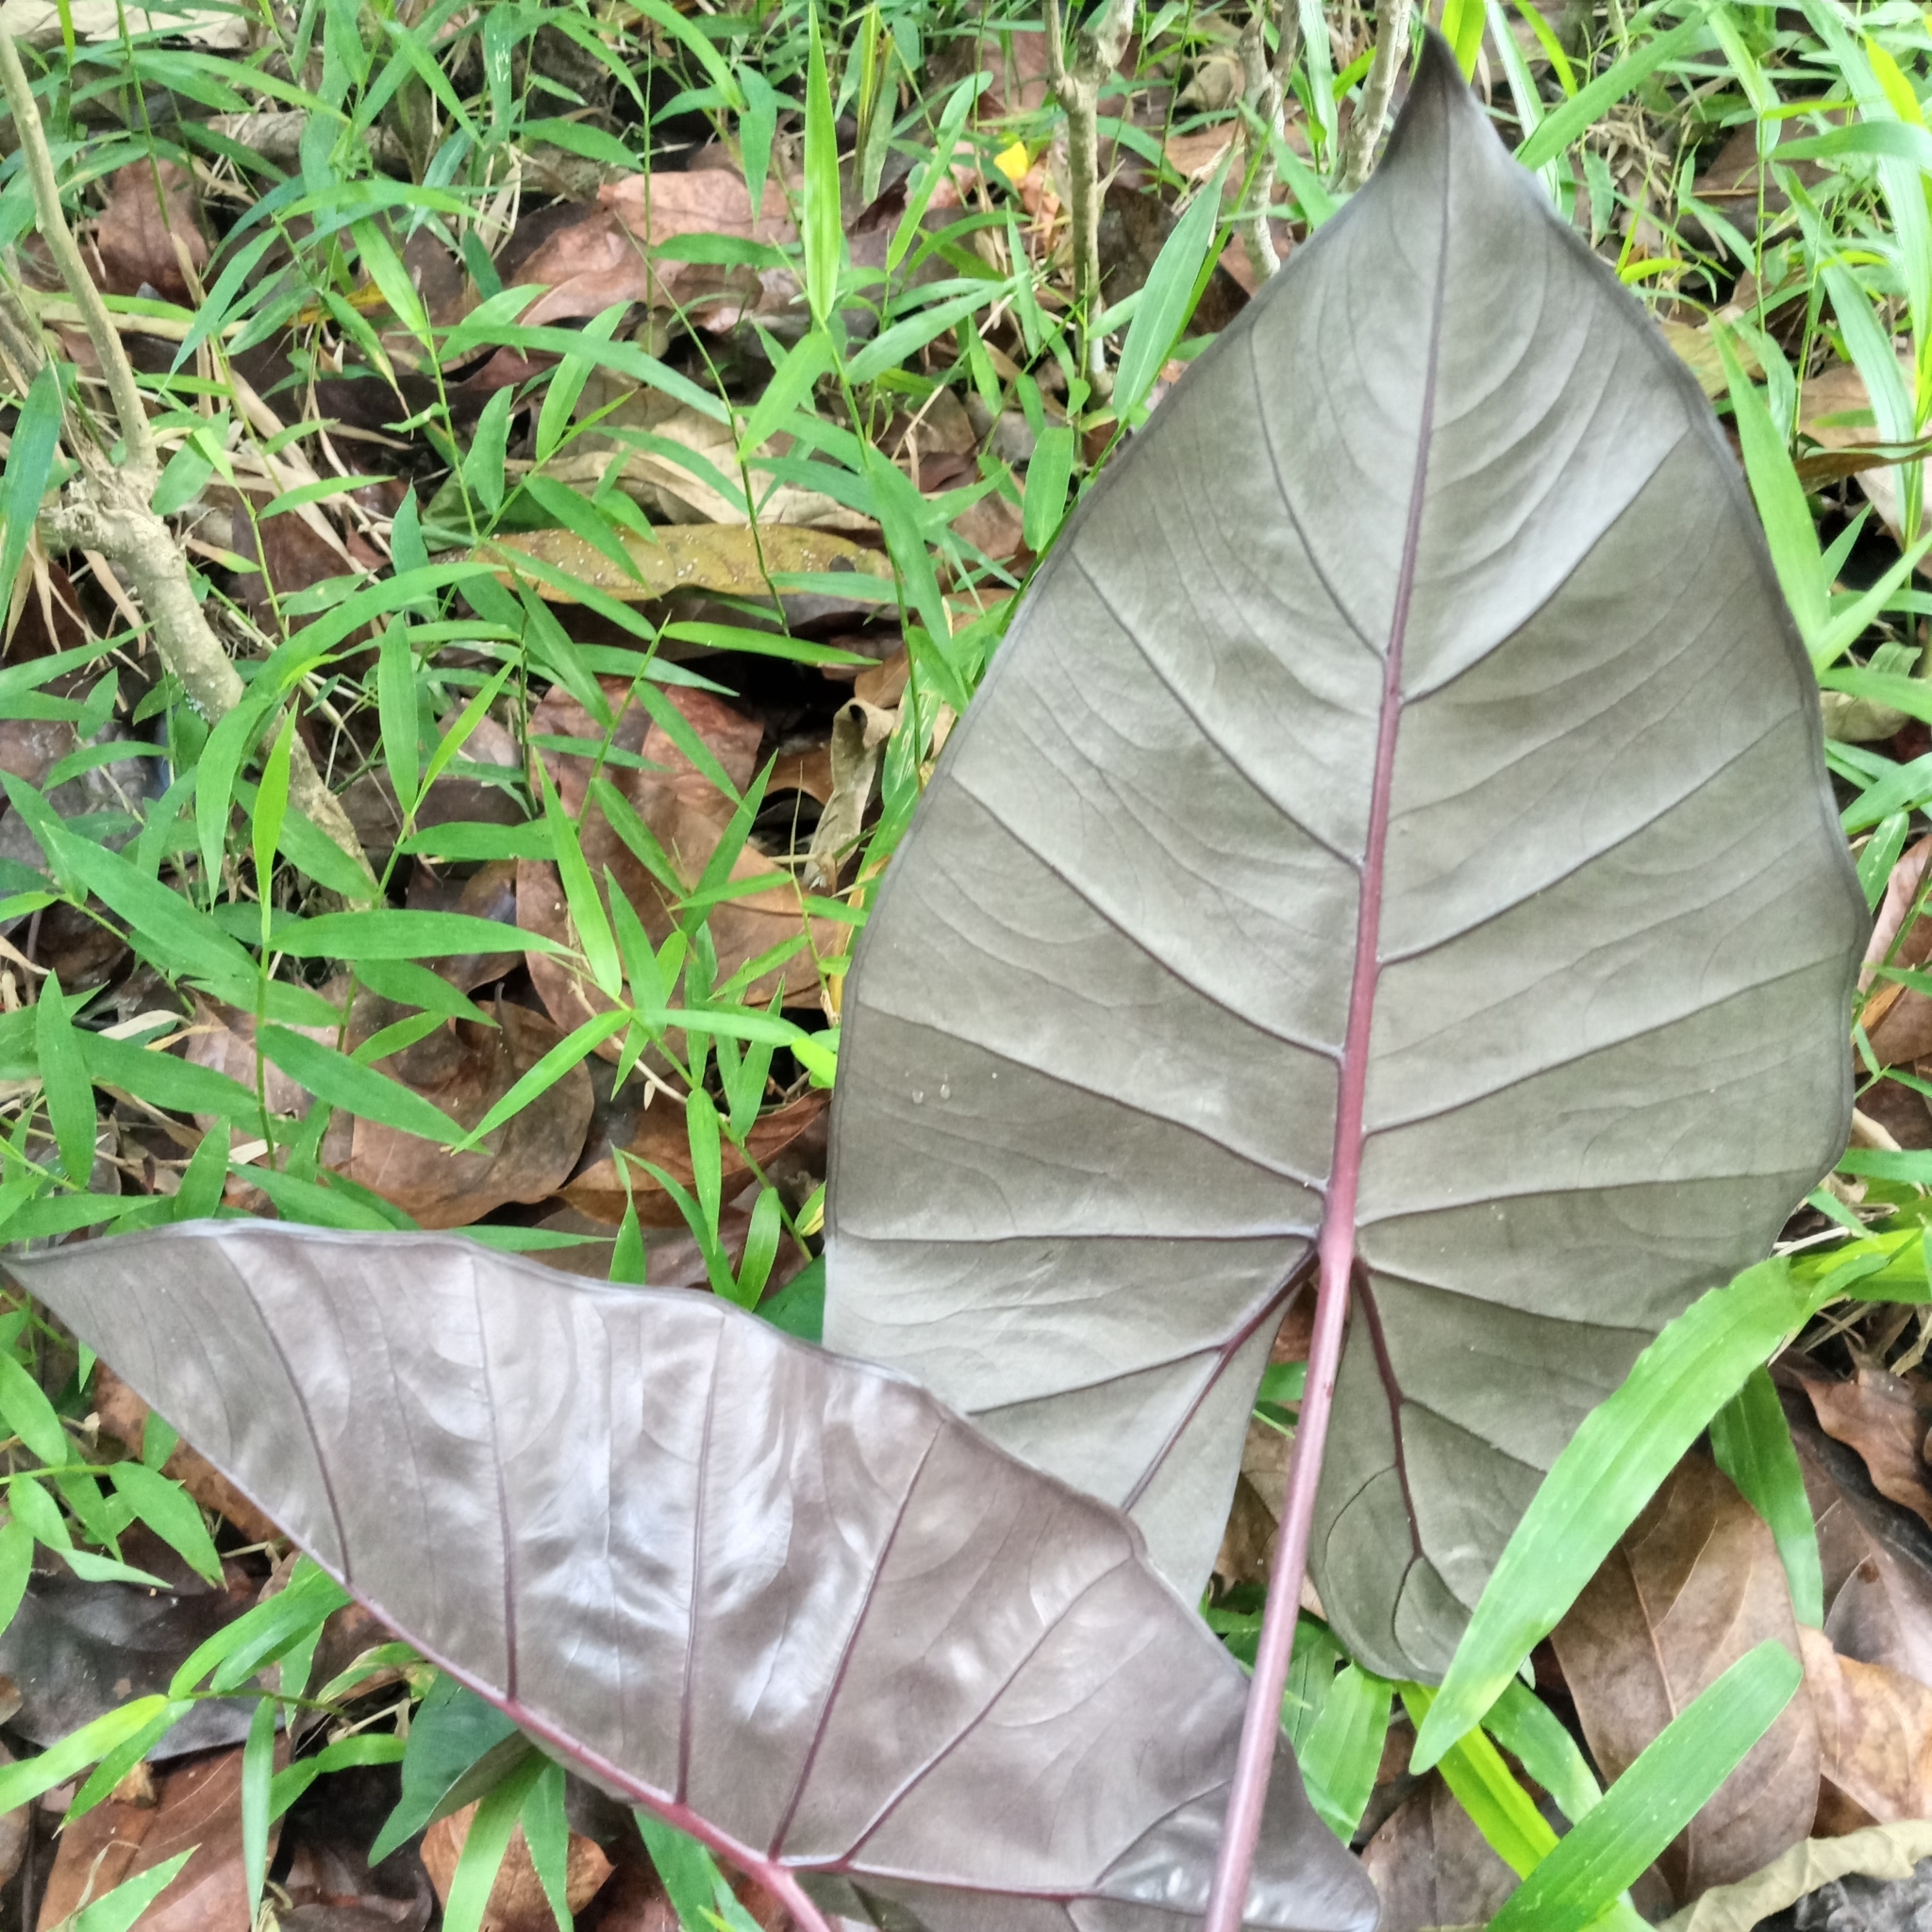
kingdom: Plantae
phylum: Tracheophyta
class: Liliopsida
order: Alismatales
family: Araceae
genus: Alocasia
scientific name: Alocasia macrorrhizos
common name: Giant taro
